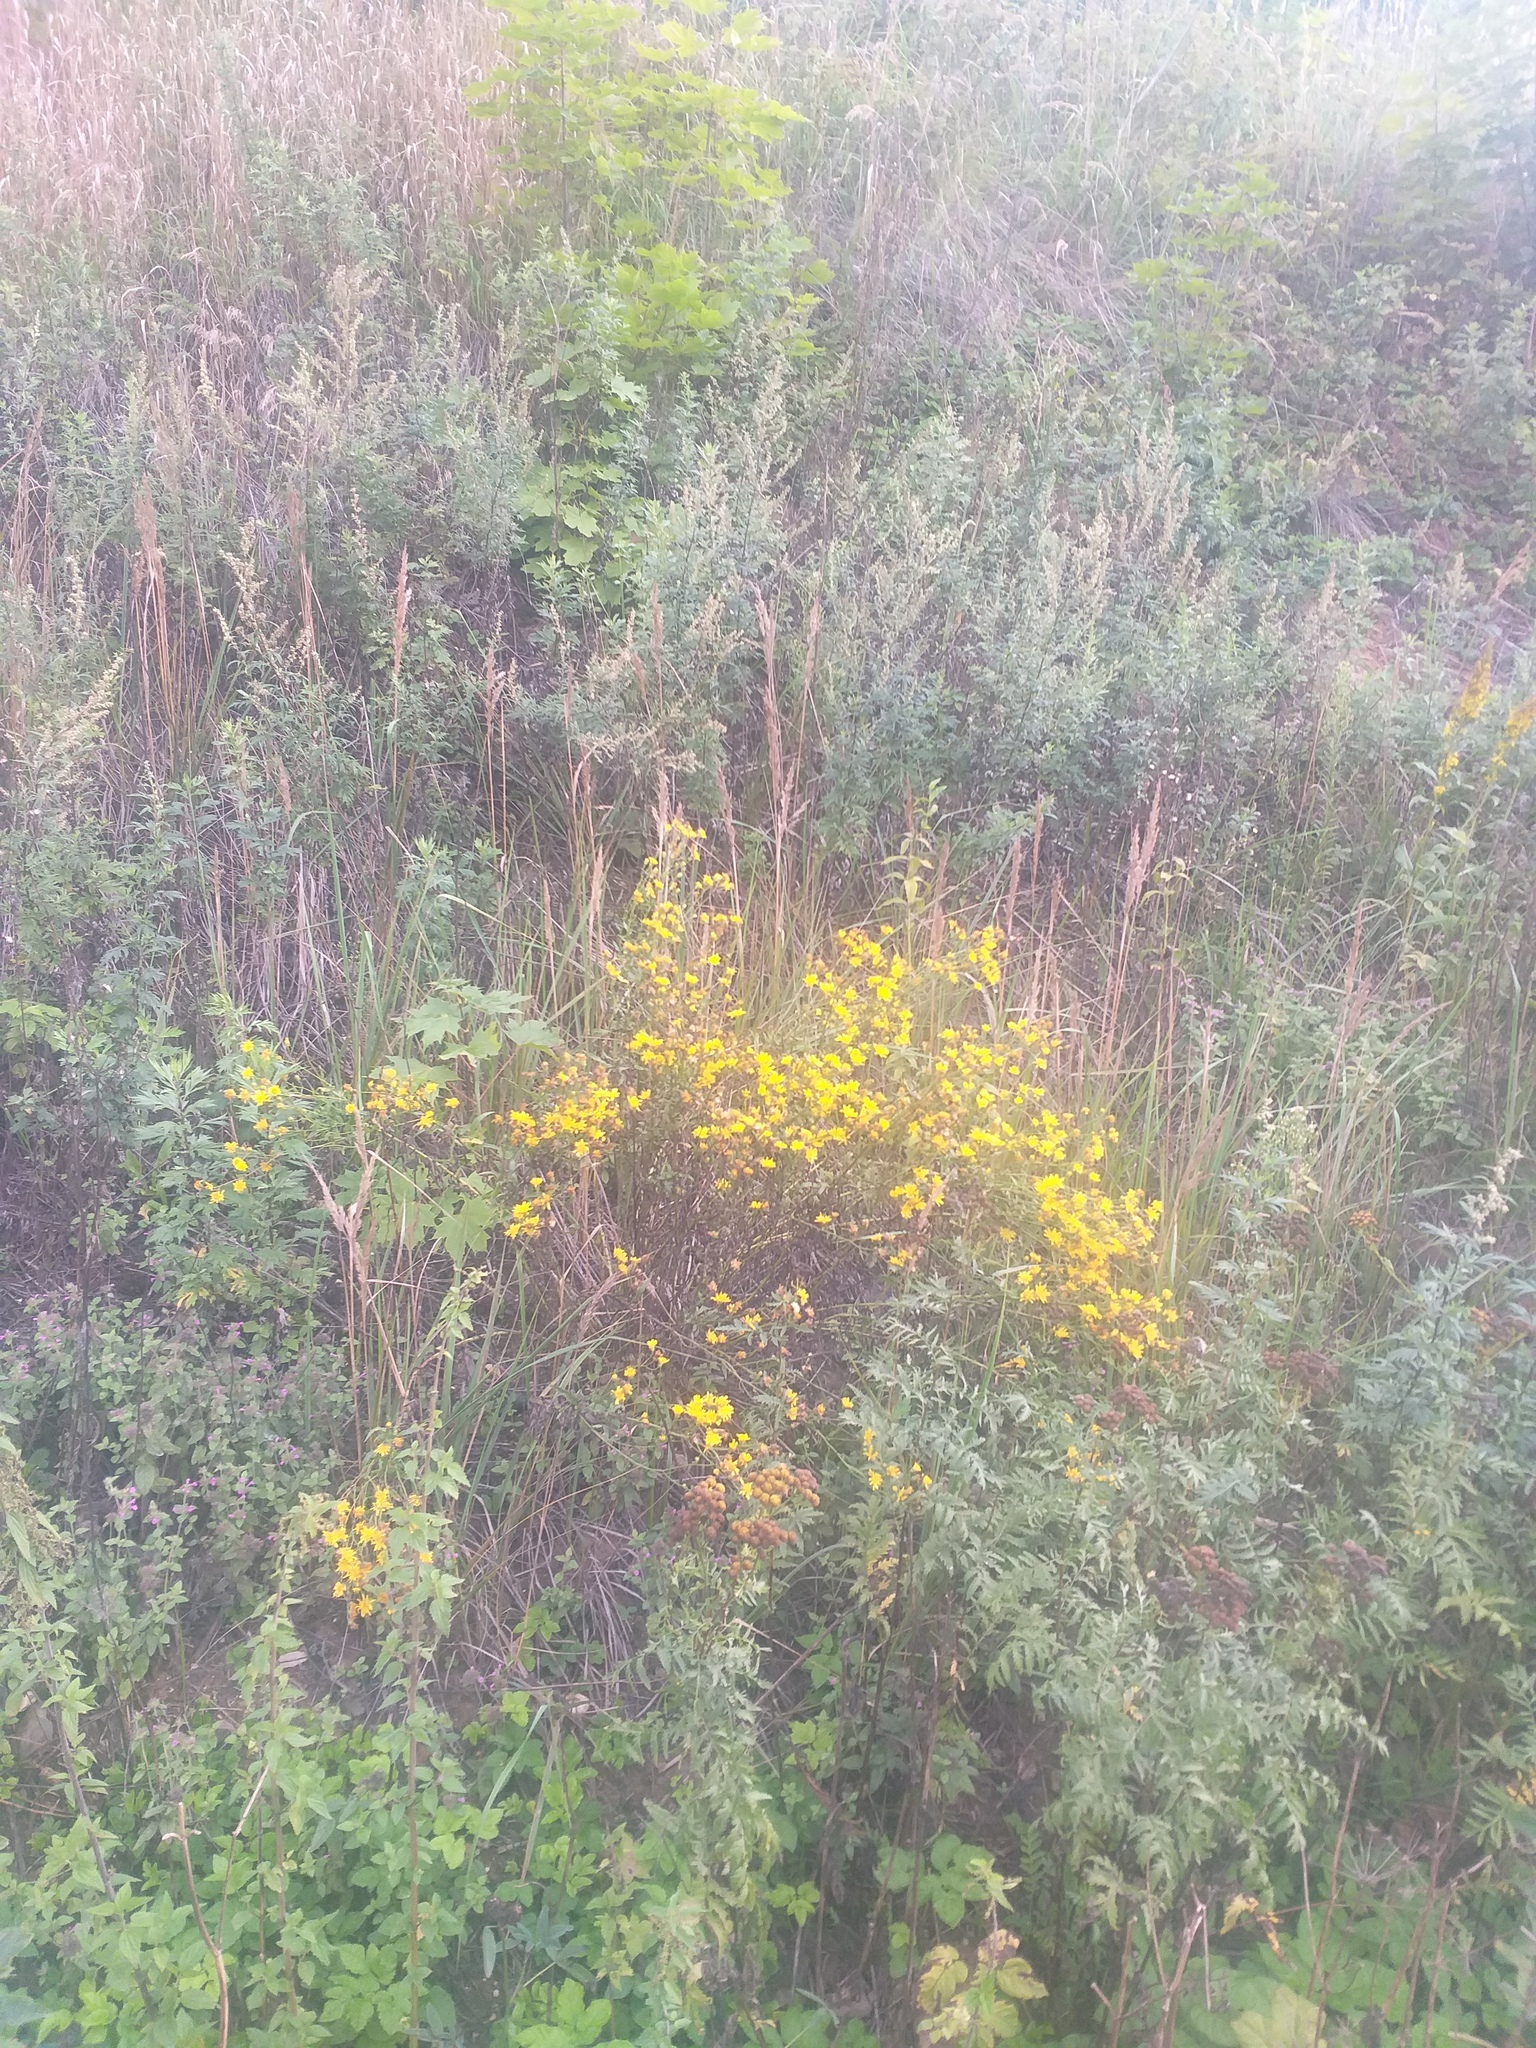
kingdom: Plantae
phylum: Tracheophyta
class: Magnoliopsida
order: Asterales
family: Asteraceae
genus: Hieracium
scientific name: Hieracium umbellatum
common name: Northern hawkweed
